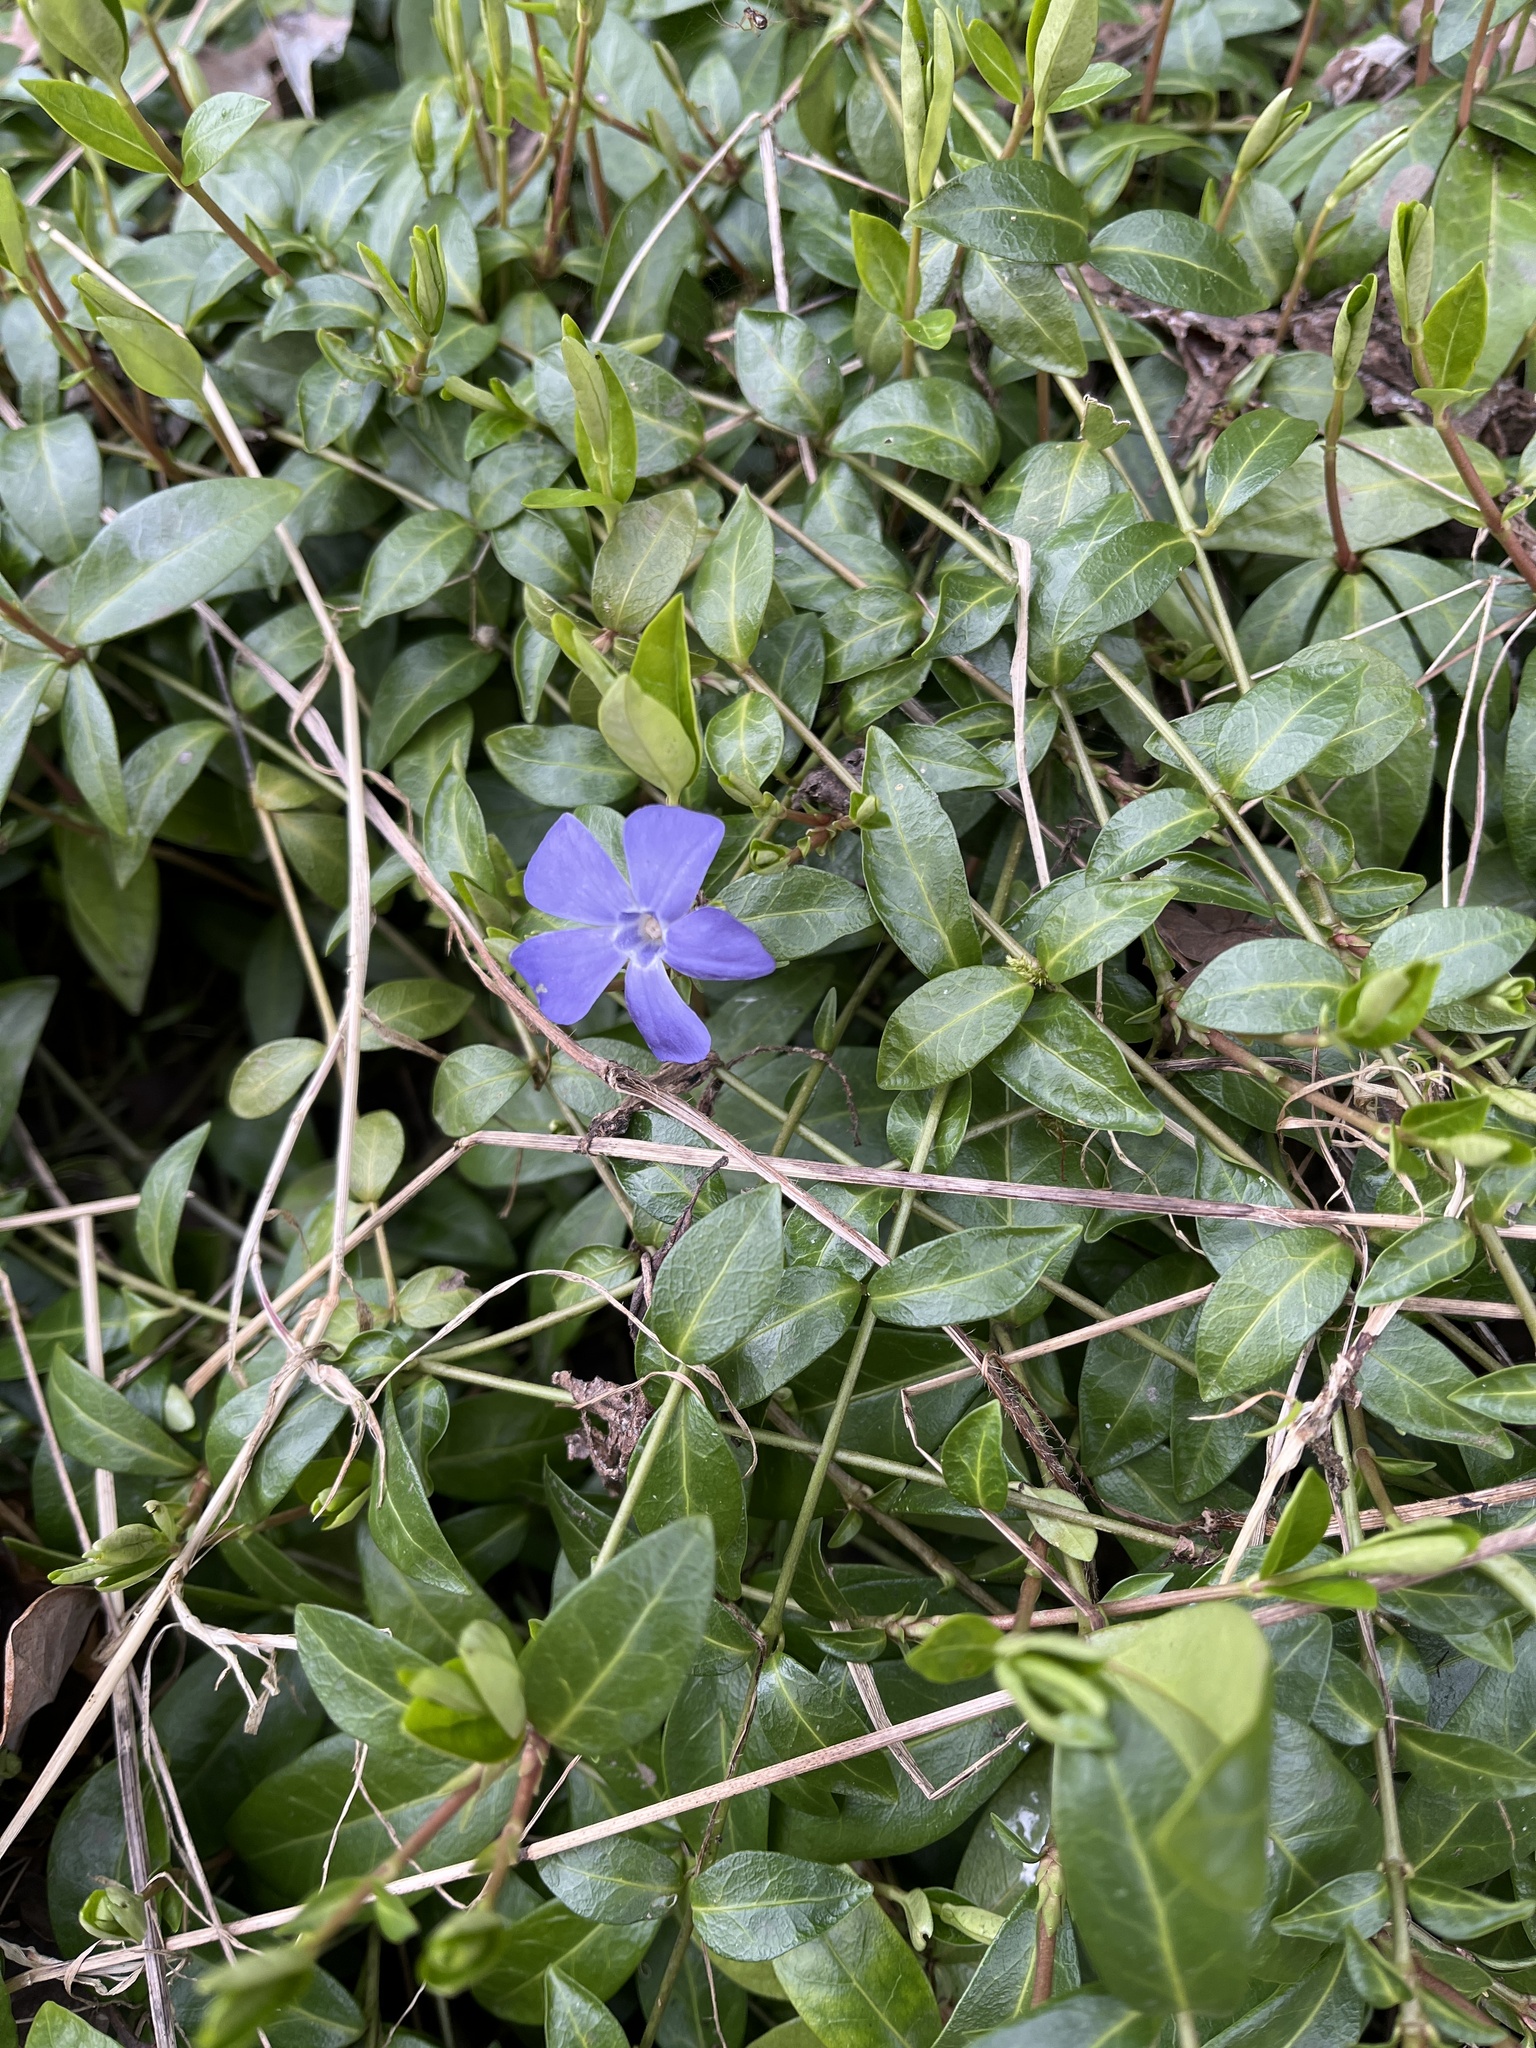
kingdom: Plantae
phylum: Tracheophyta
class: Magnoliopsida
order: Gentianales
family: Apocynaceae
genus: Vinca
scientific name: Vinca minor
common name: Lesser periwinkle
